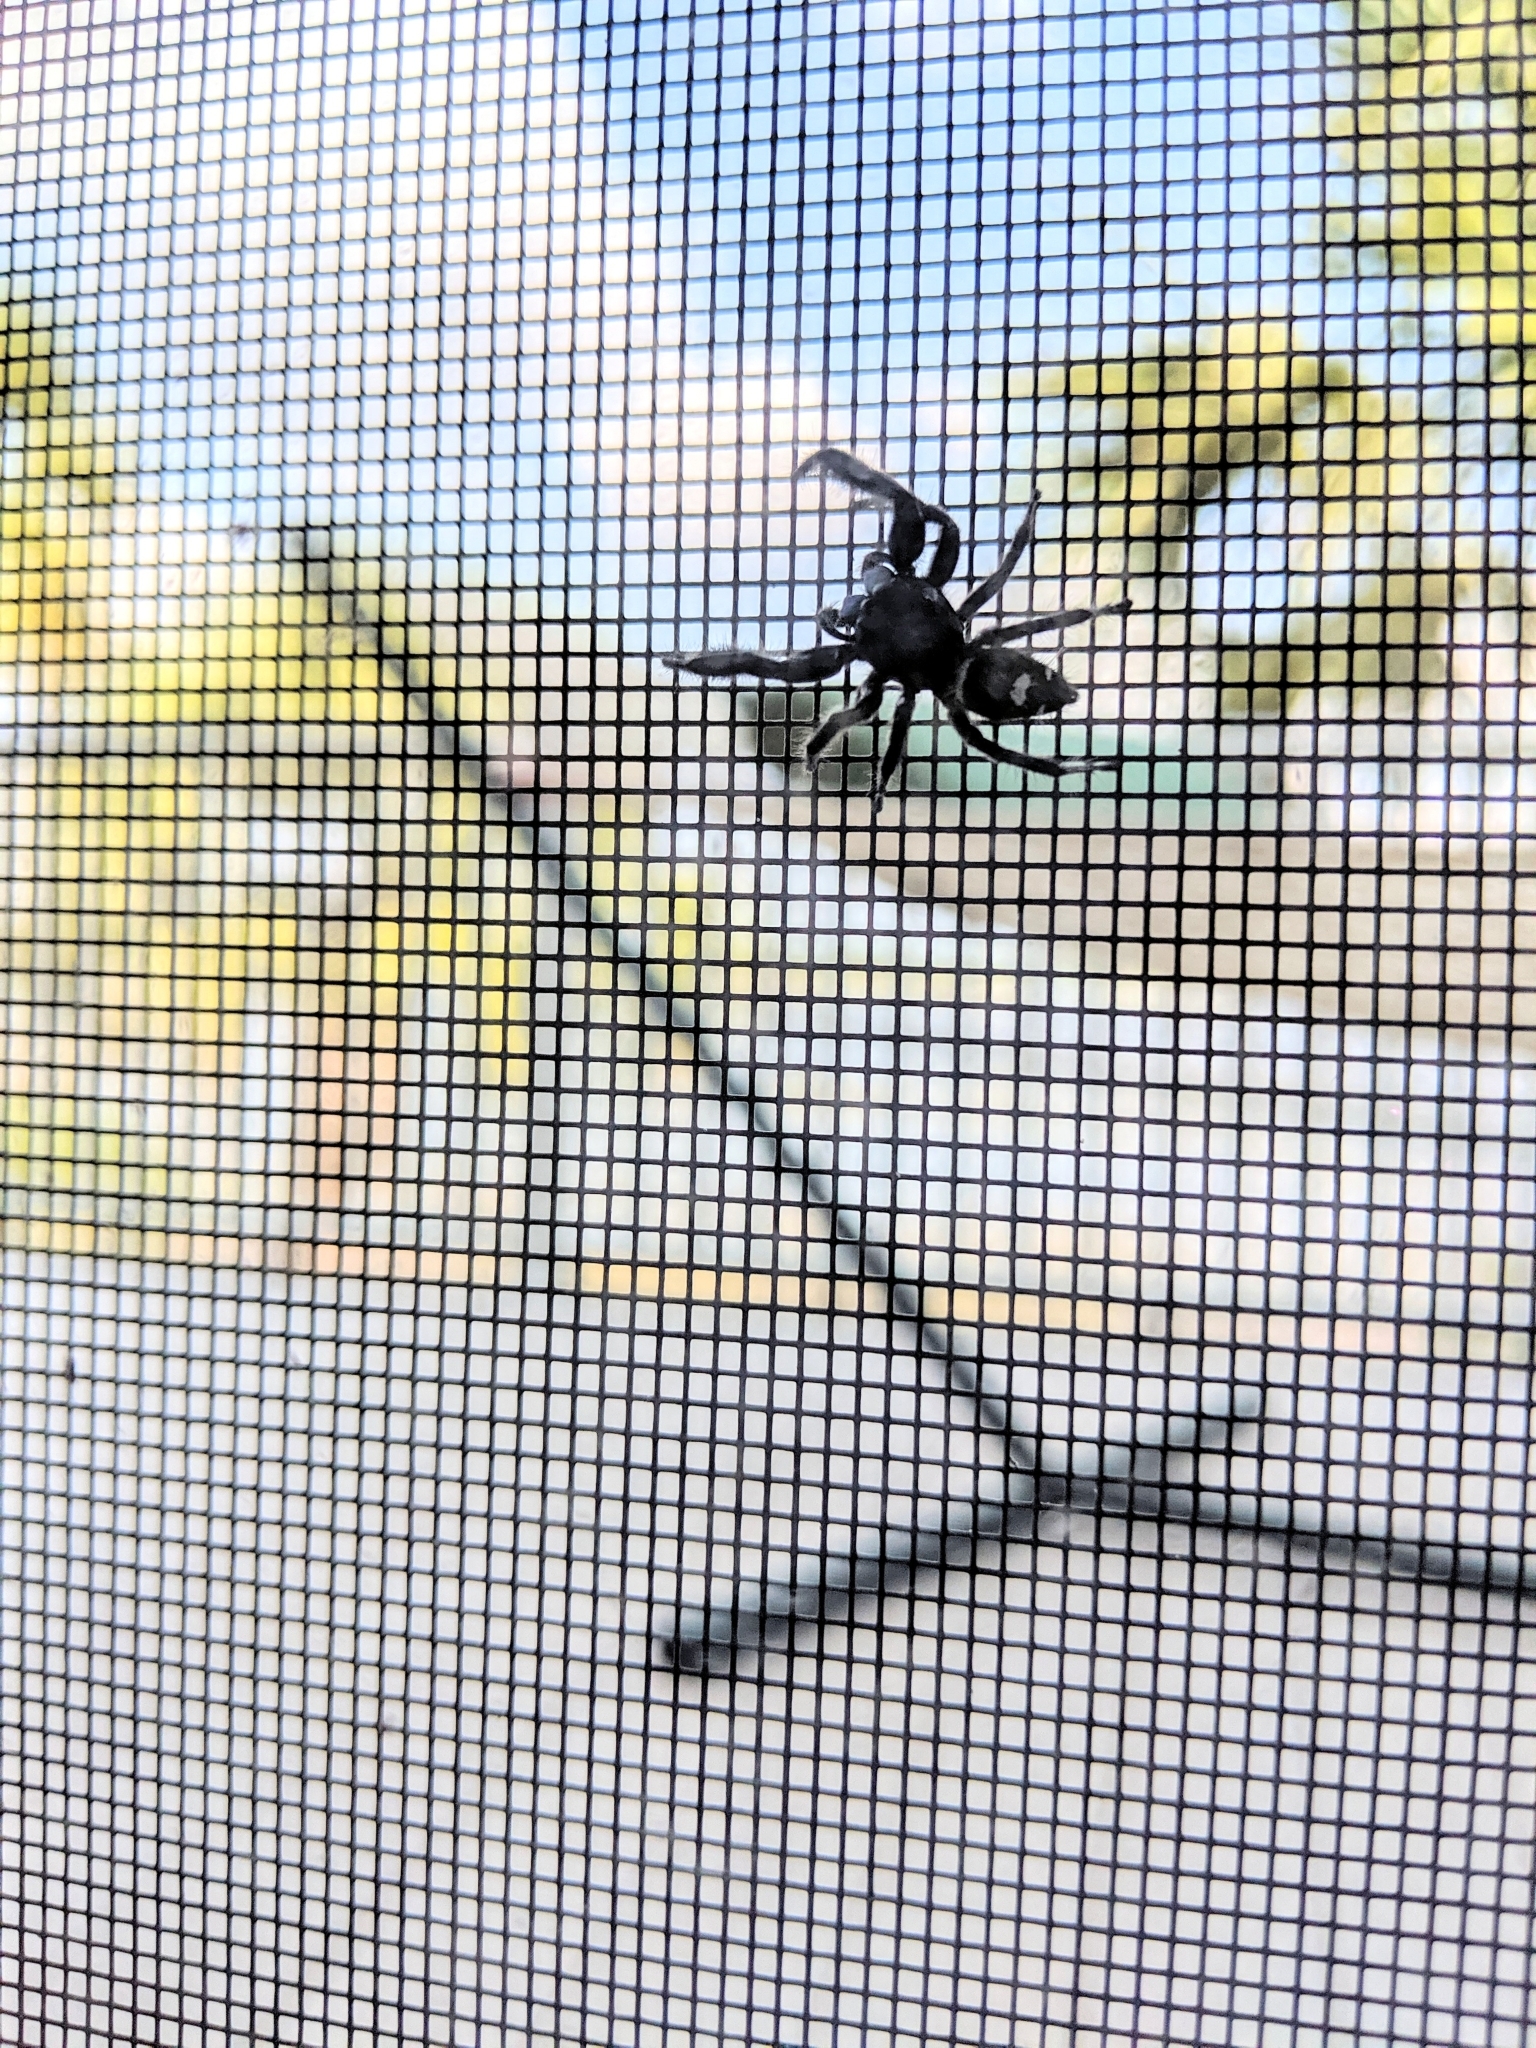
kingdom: Animalia
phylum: Arthropoda
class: Arachnida
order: Araneae
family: Salticidae
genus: Phidippus
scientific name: Phidippus regius
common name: Regal jumper
